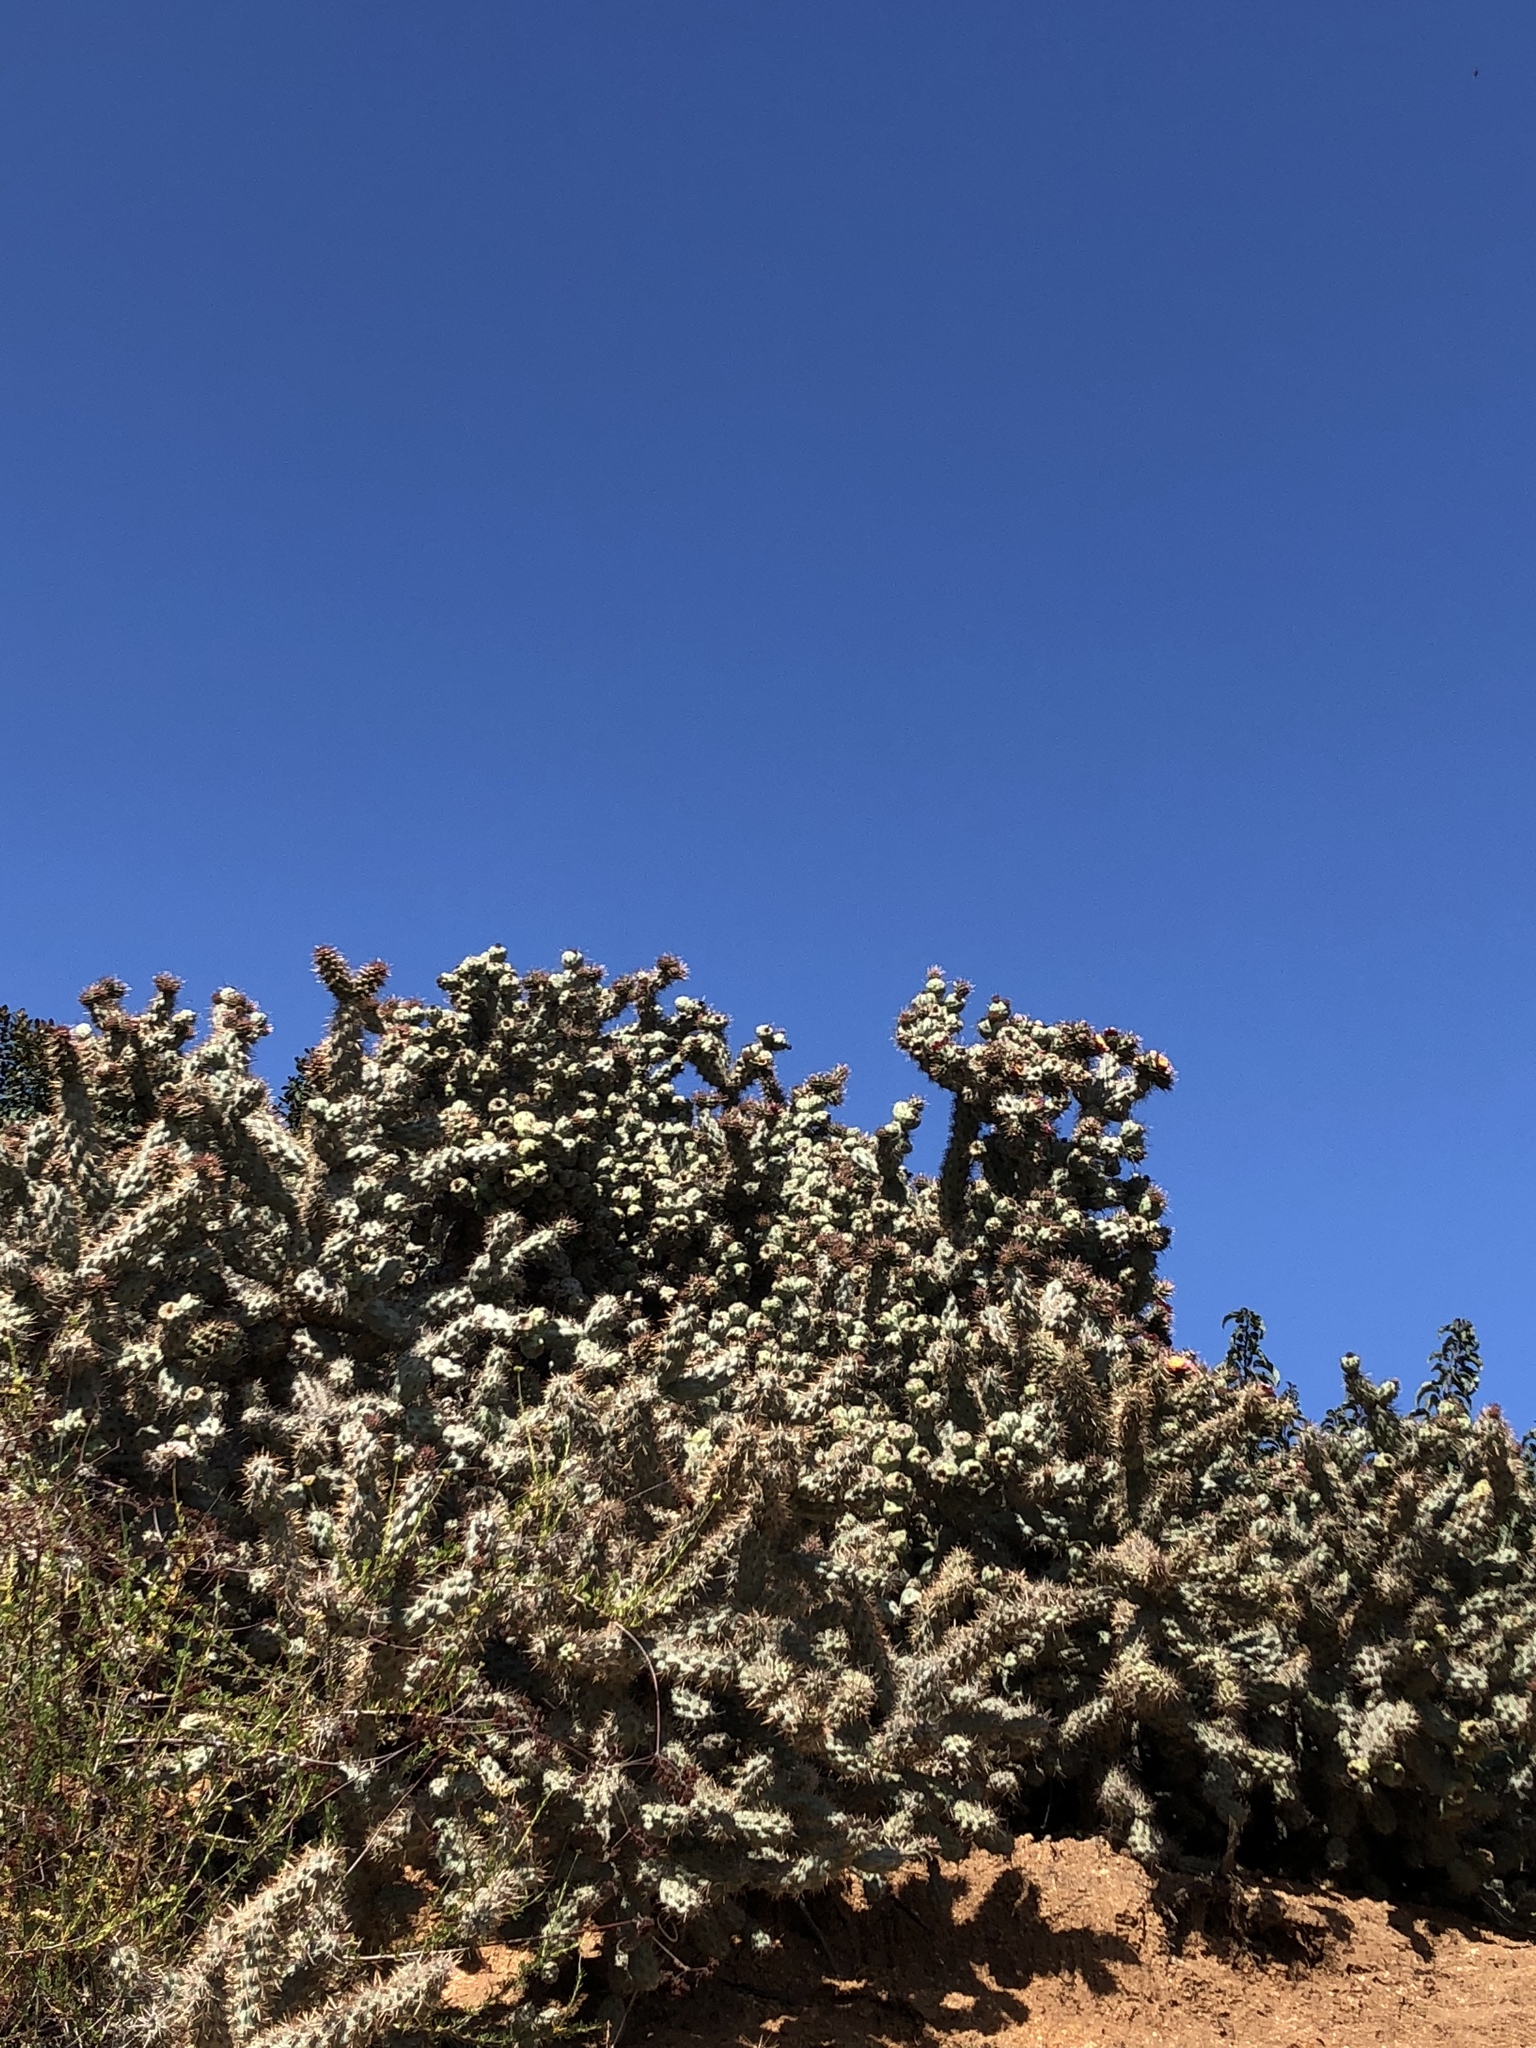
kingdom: Plantae
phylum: Tracheophyta
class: Magnoliopsida
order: Caryophyllales
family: Cactaceae
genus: Cylindropuntia
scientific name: Cylindropuntia prolifera
